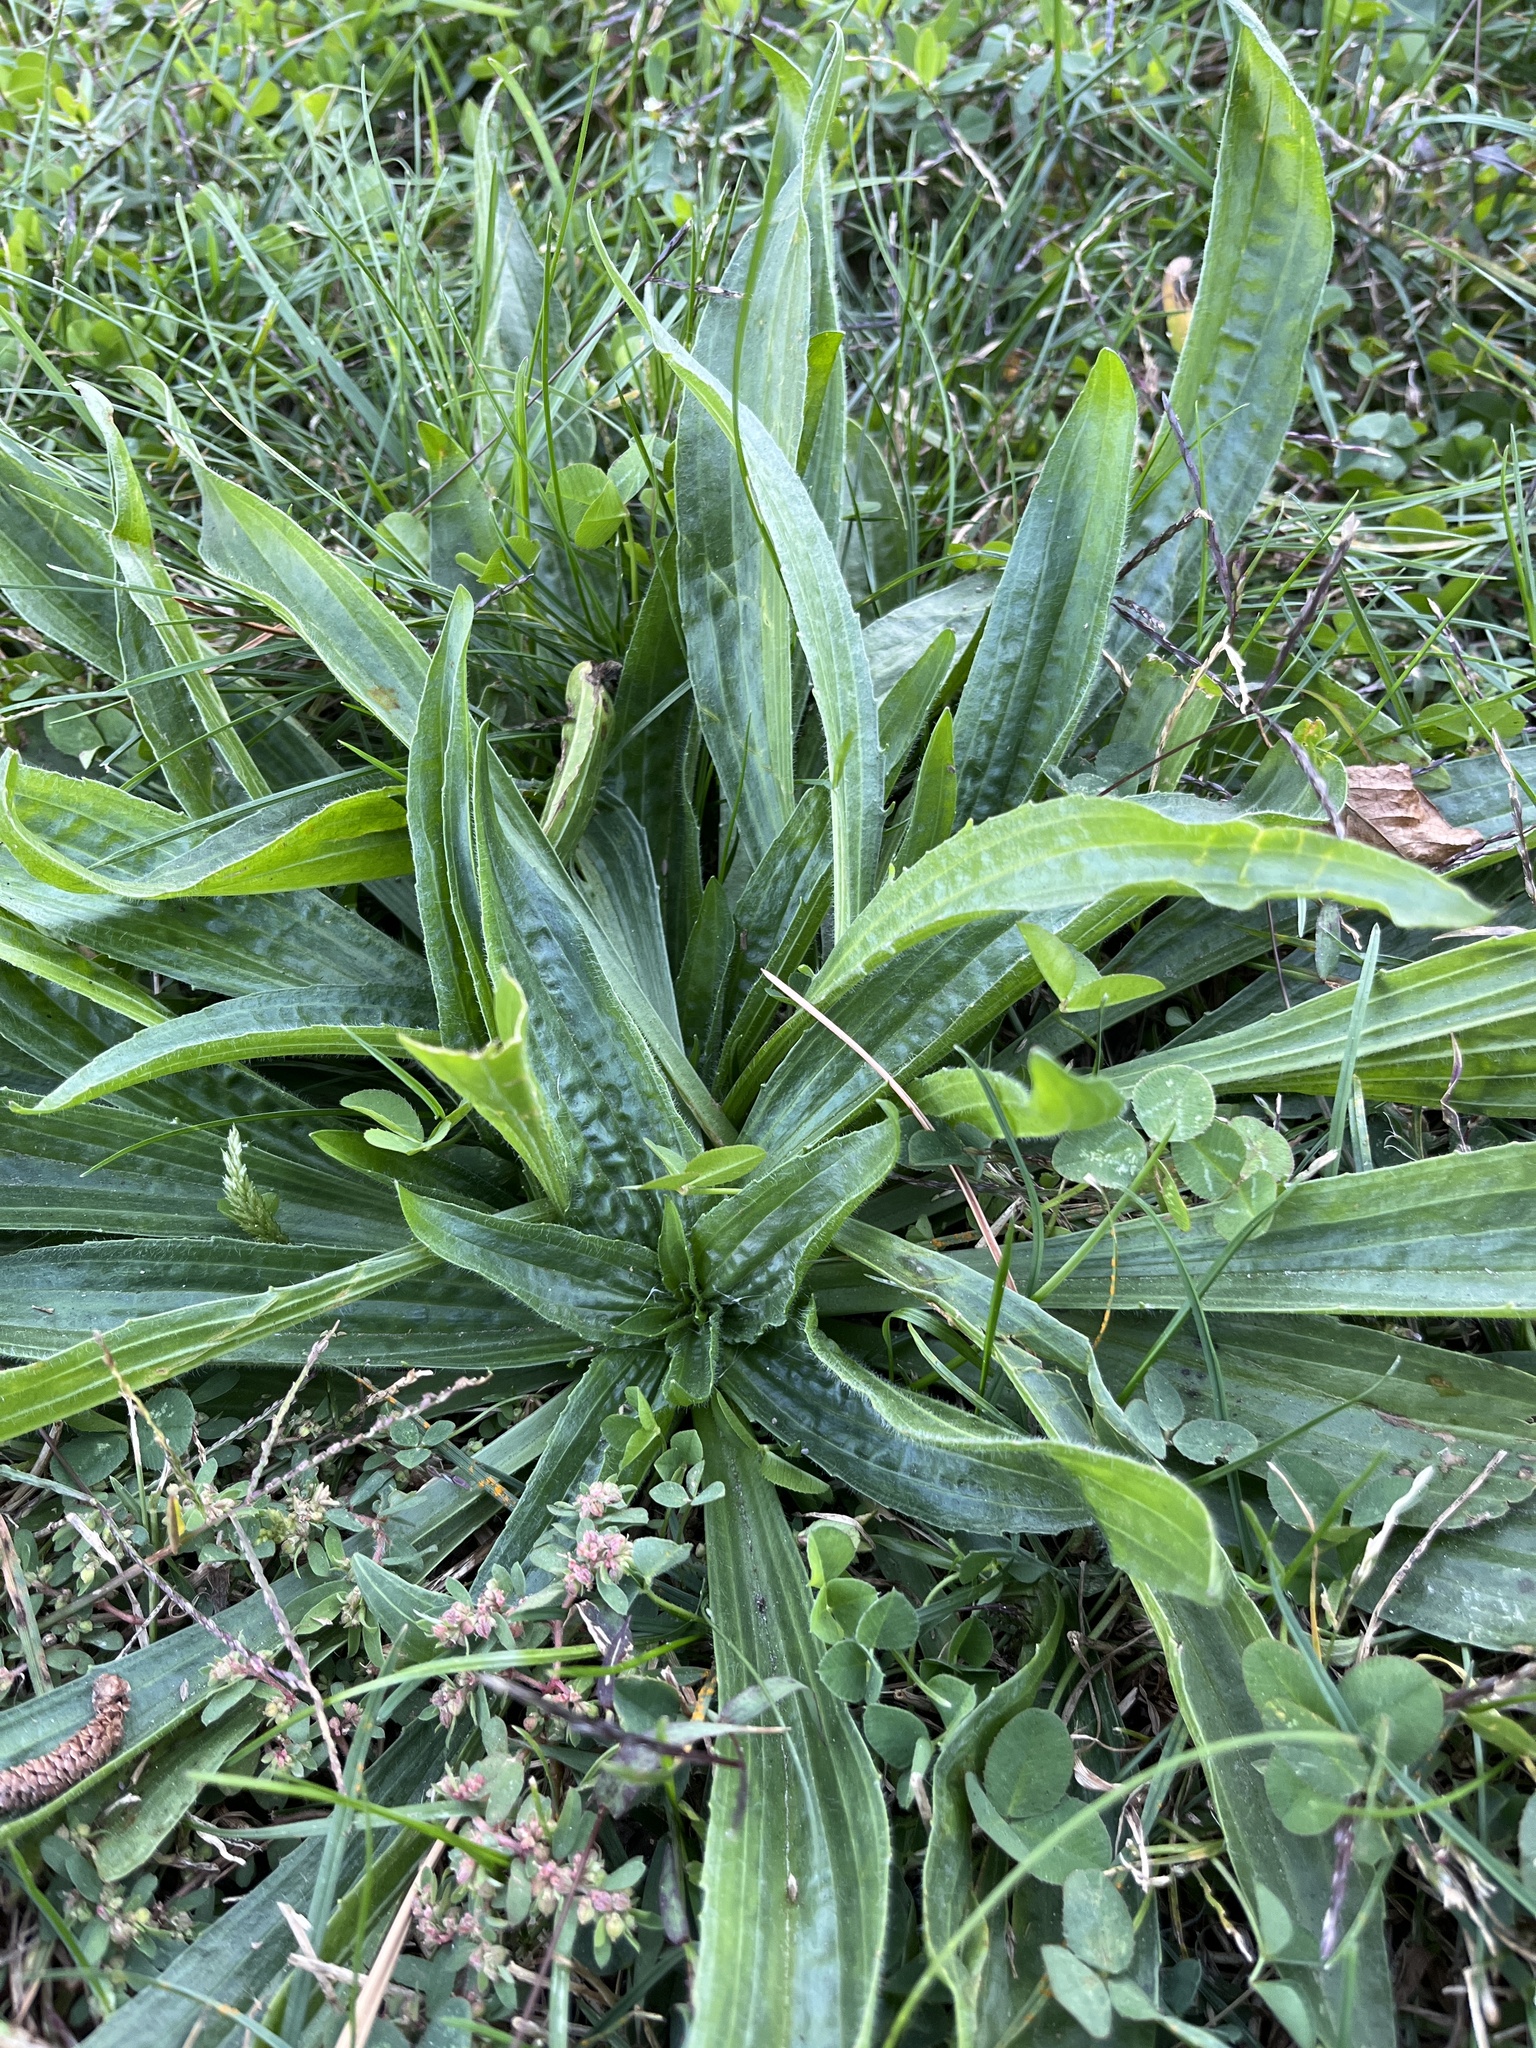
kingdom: Plantae
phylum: Tracheophyta
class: Magnoliopsida
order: Lamiales
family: Plantaginaceae
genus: Plantago
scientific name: Plantago lanceolata
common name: Ribwort plantain
